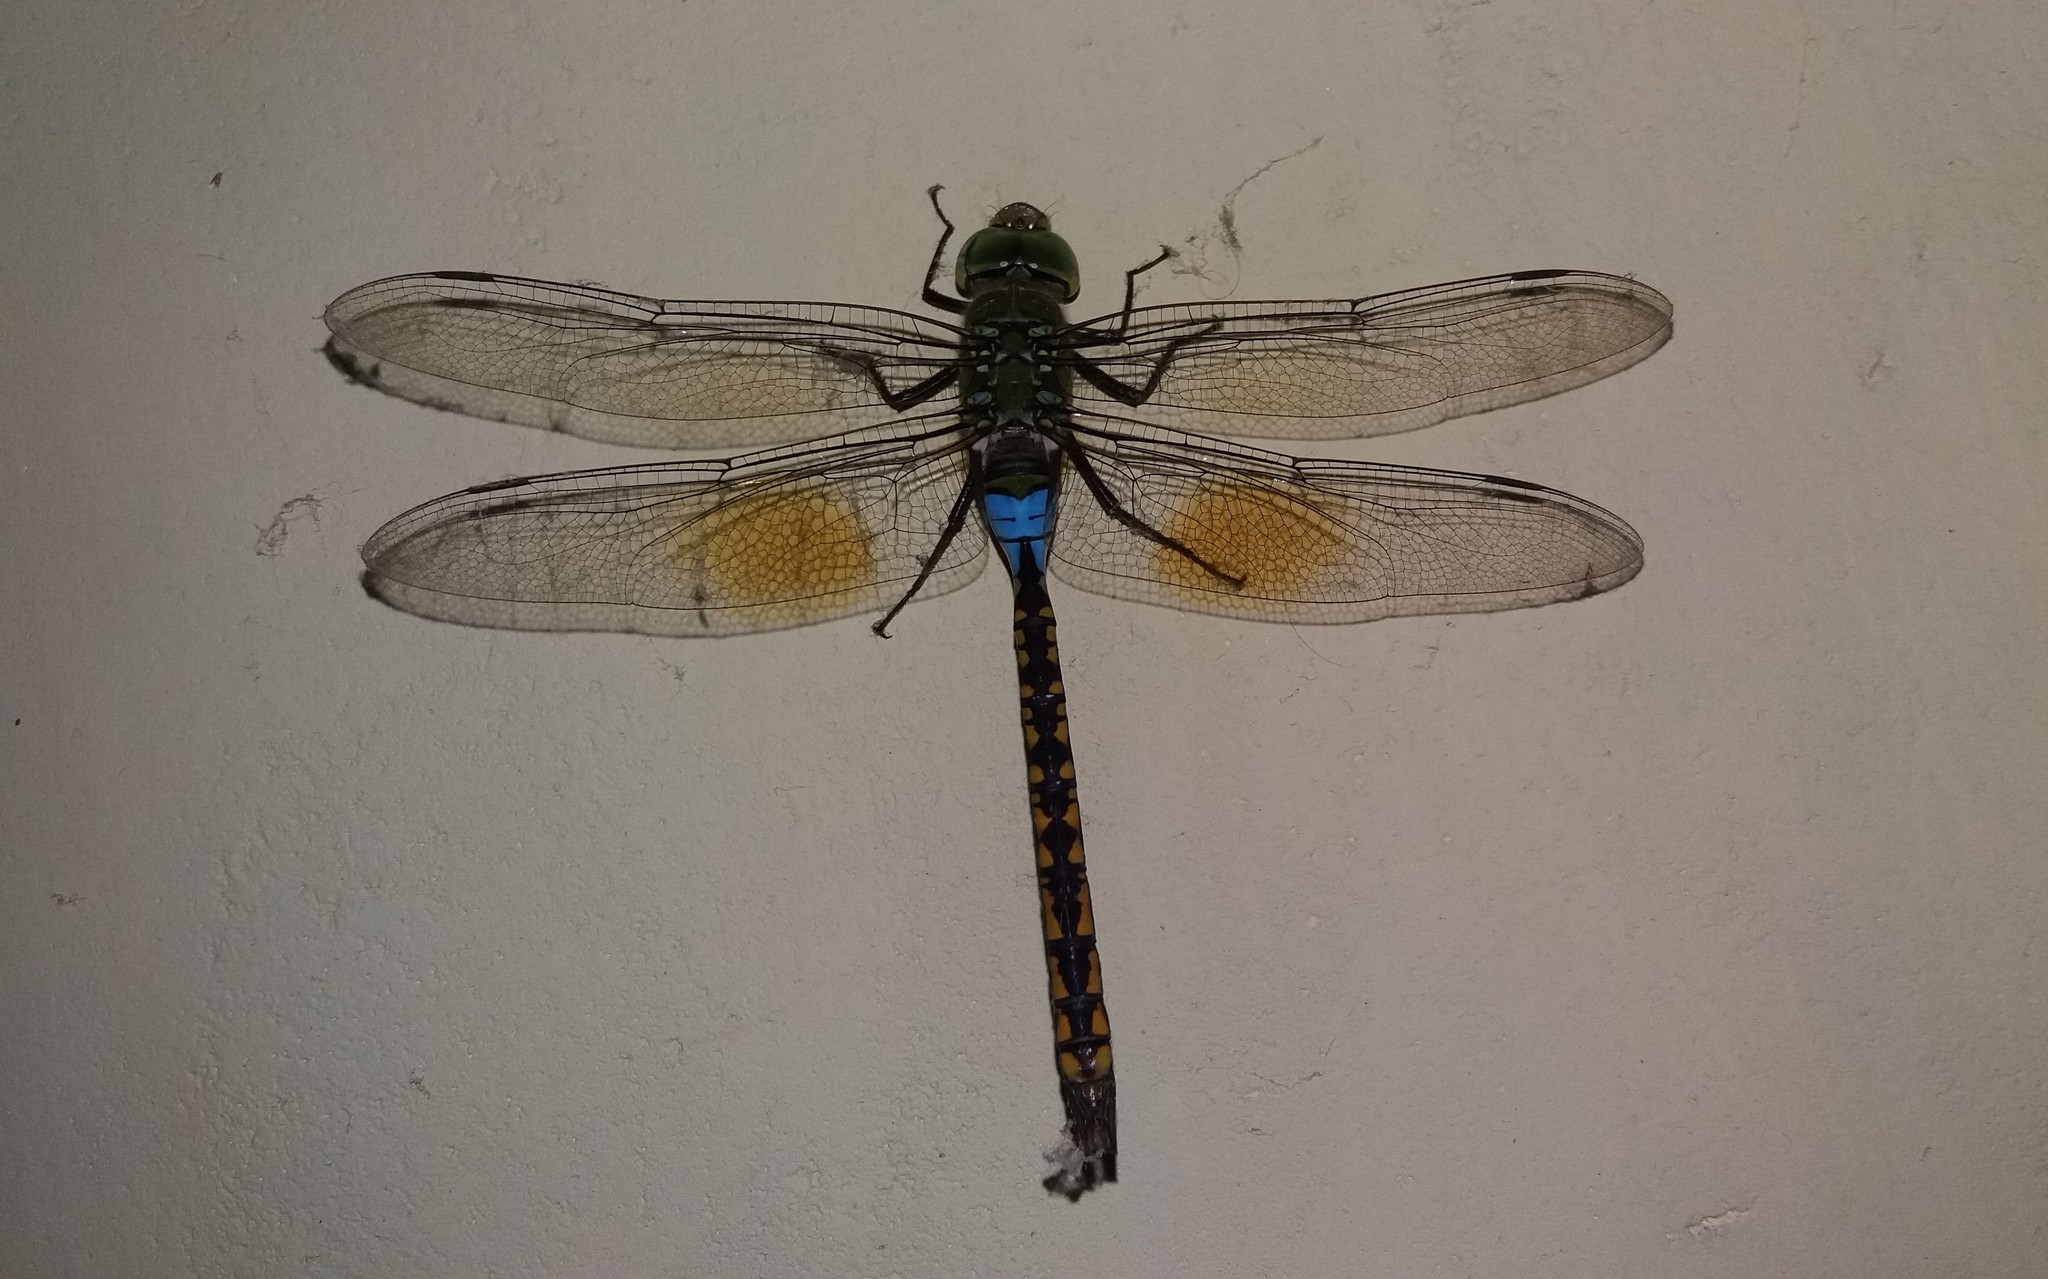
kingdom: Animalia
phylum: Arthropoda
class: Insecta
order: Odonata
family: Aeshnidae
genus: Anax
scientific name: Anax indicus
